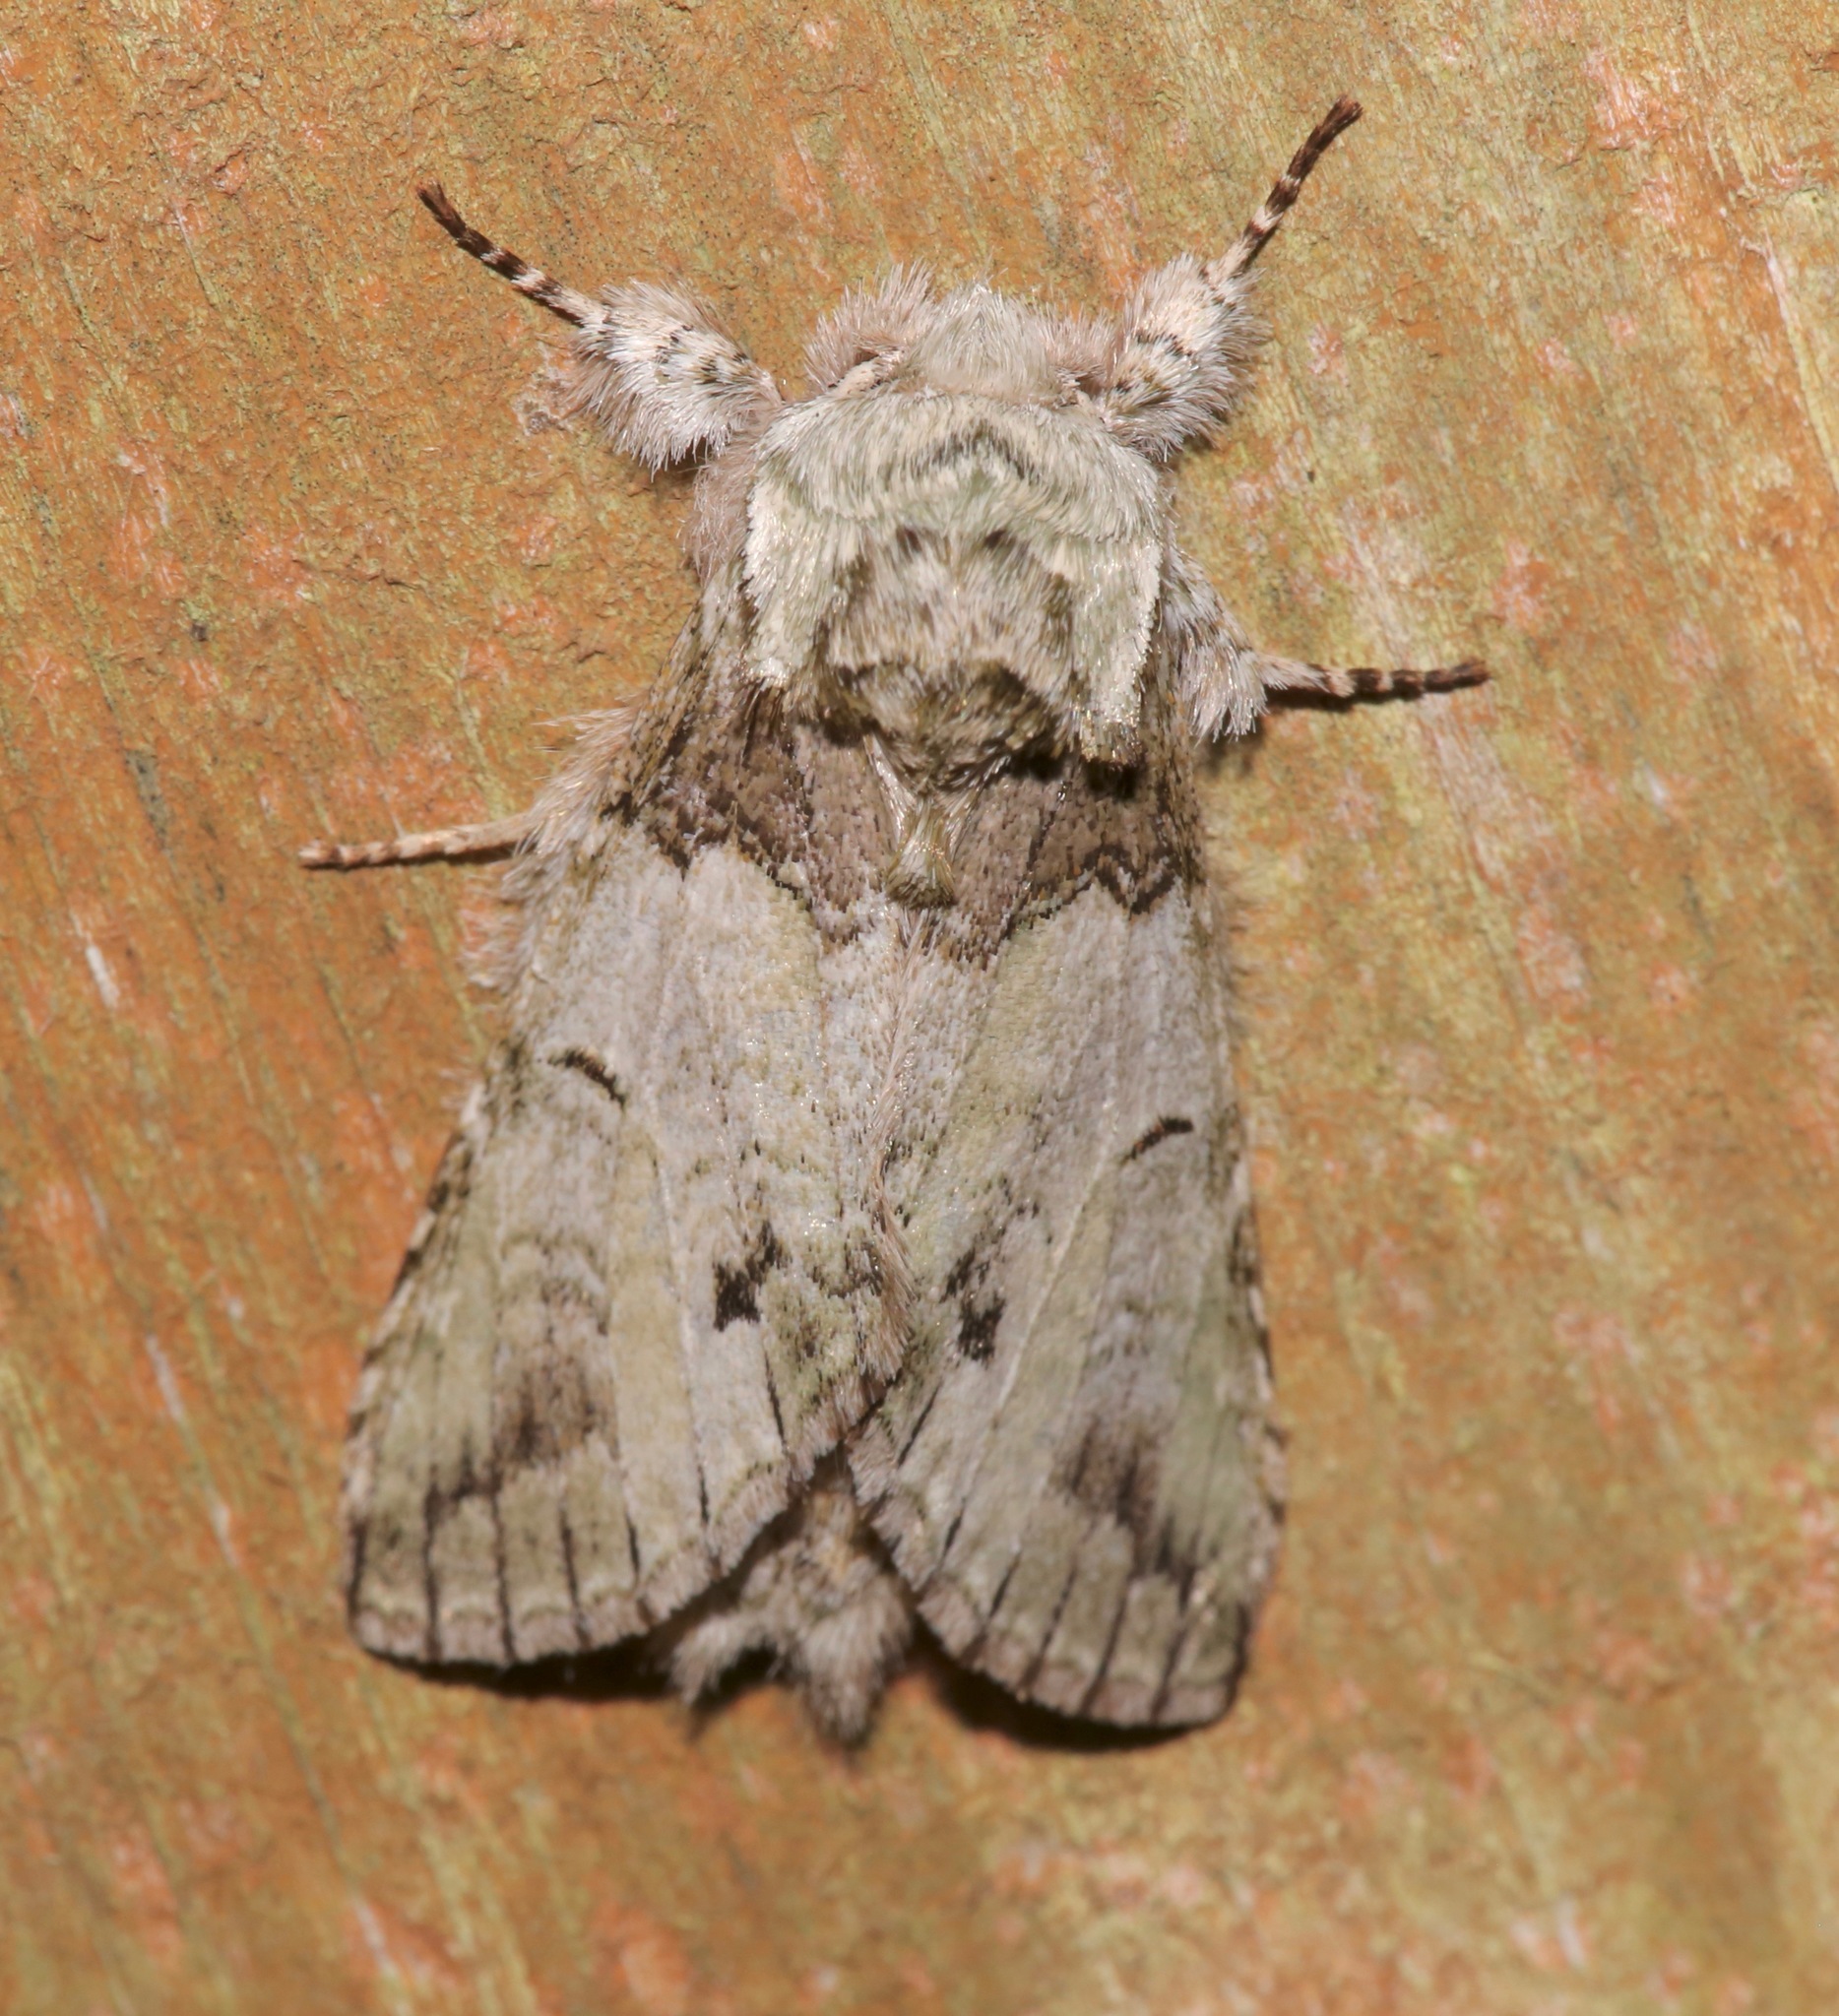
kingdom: Animalia
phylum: Arthropoda
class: Insecta
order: Lepidoptera
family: Notodontidae
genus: Macrurocampa
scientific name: Macrurocampa marthesia
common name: Mottled prominent
